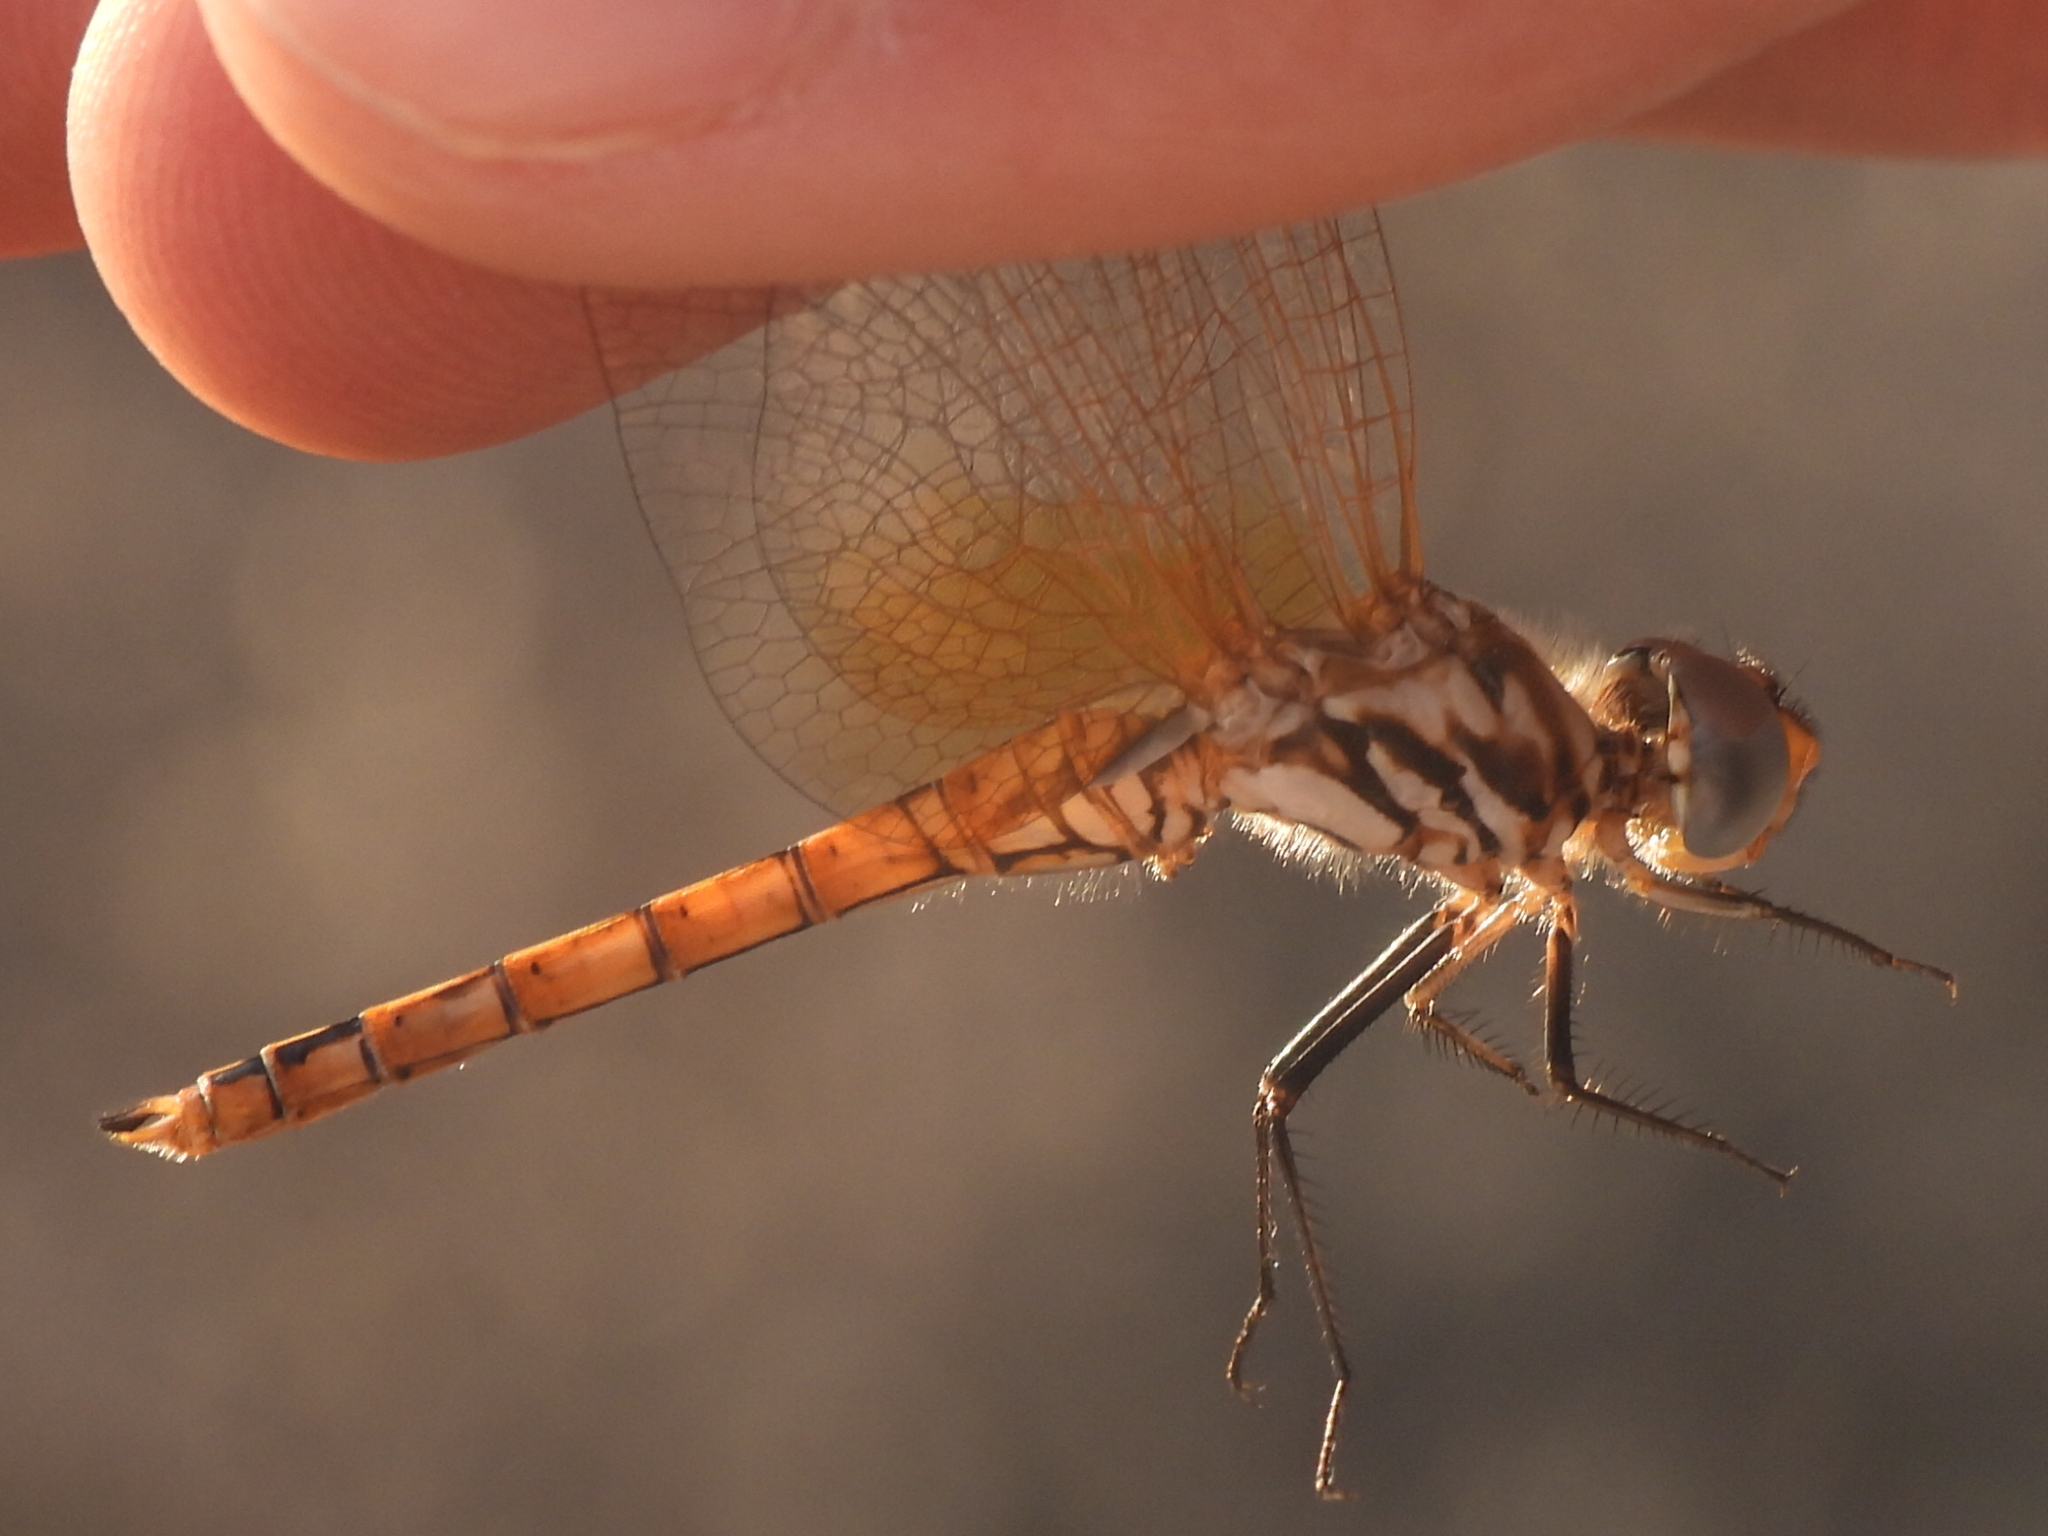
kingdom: Animalia
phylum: Arthropoda
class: Insecta
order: Odonata
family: Libellulidae
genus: Trithemis
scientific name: Trithemis annulata
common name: Violet dropwing
